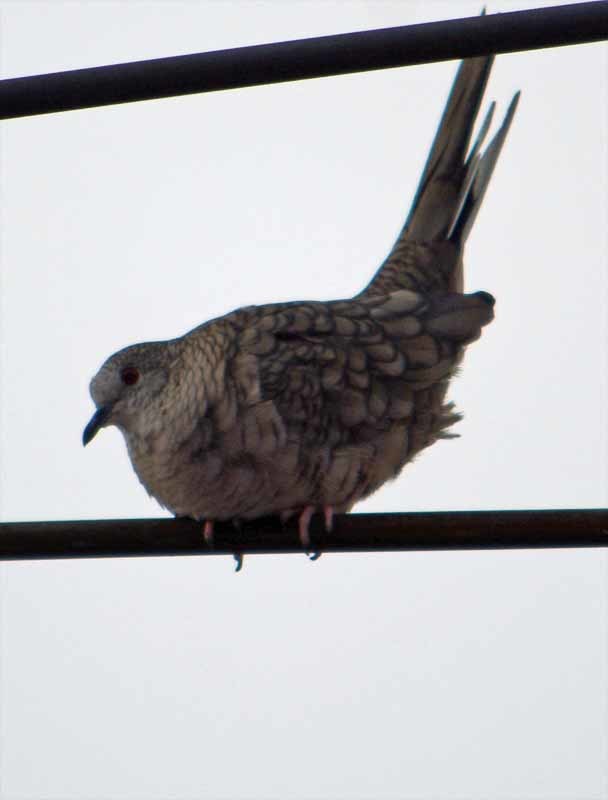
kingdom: Animalia
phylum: Chordata
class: Aves
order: Columbiformes
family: Columbidae
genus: Columbina
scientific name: Columbina inca
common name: Inca dove
